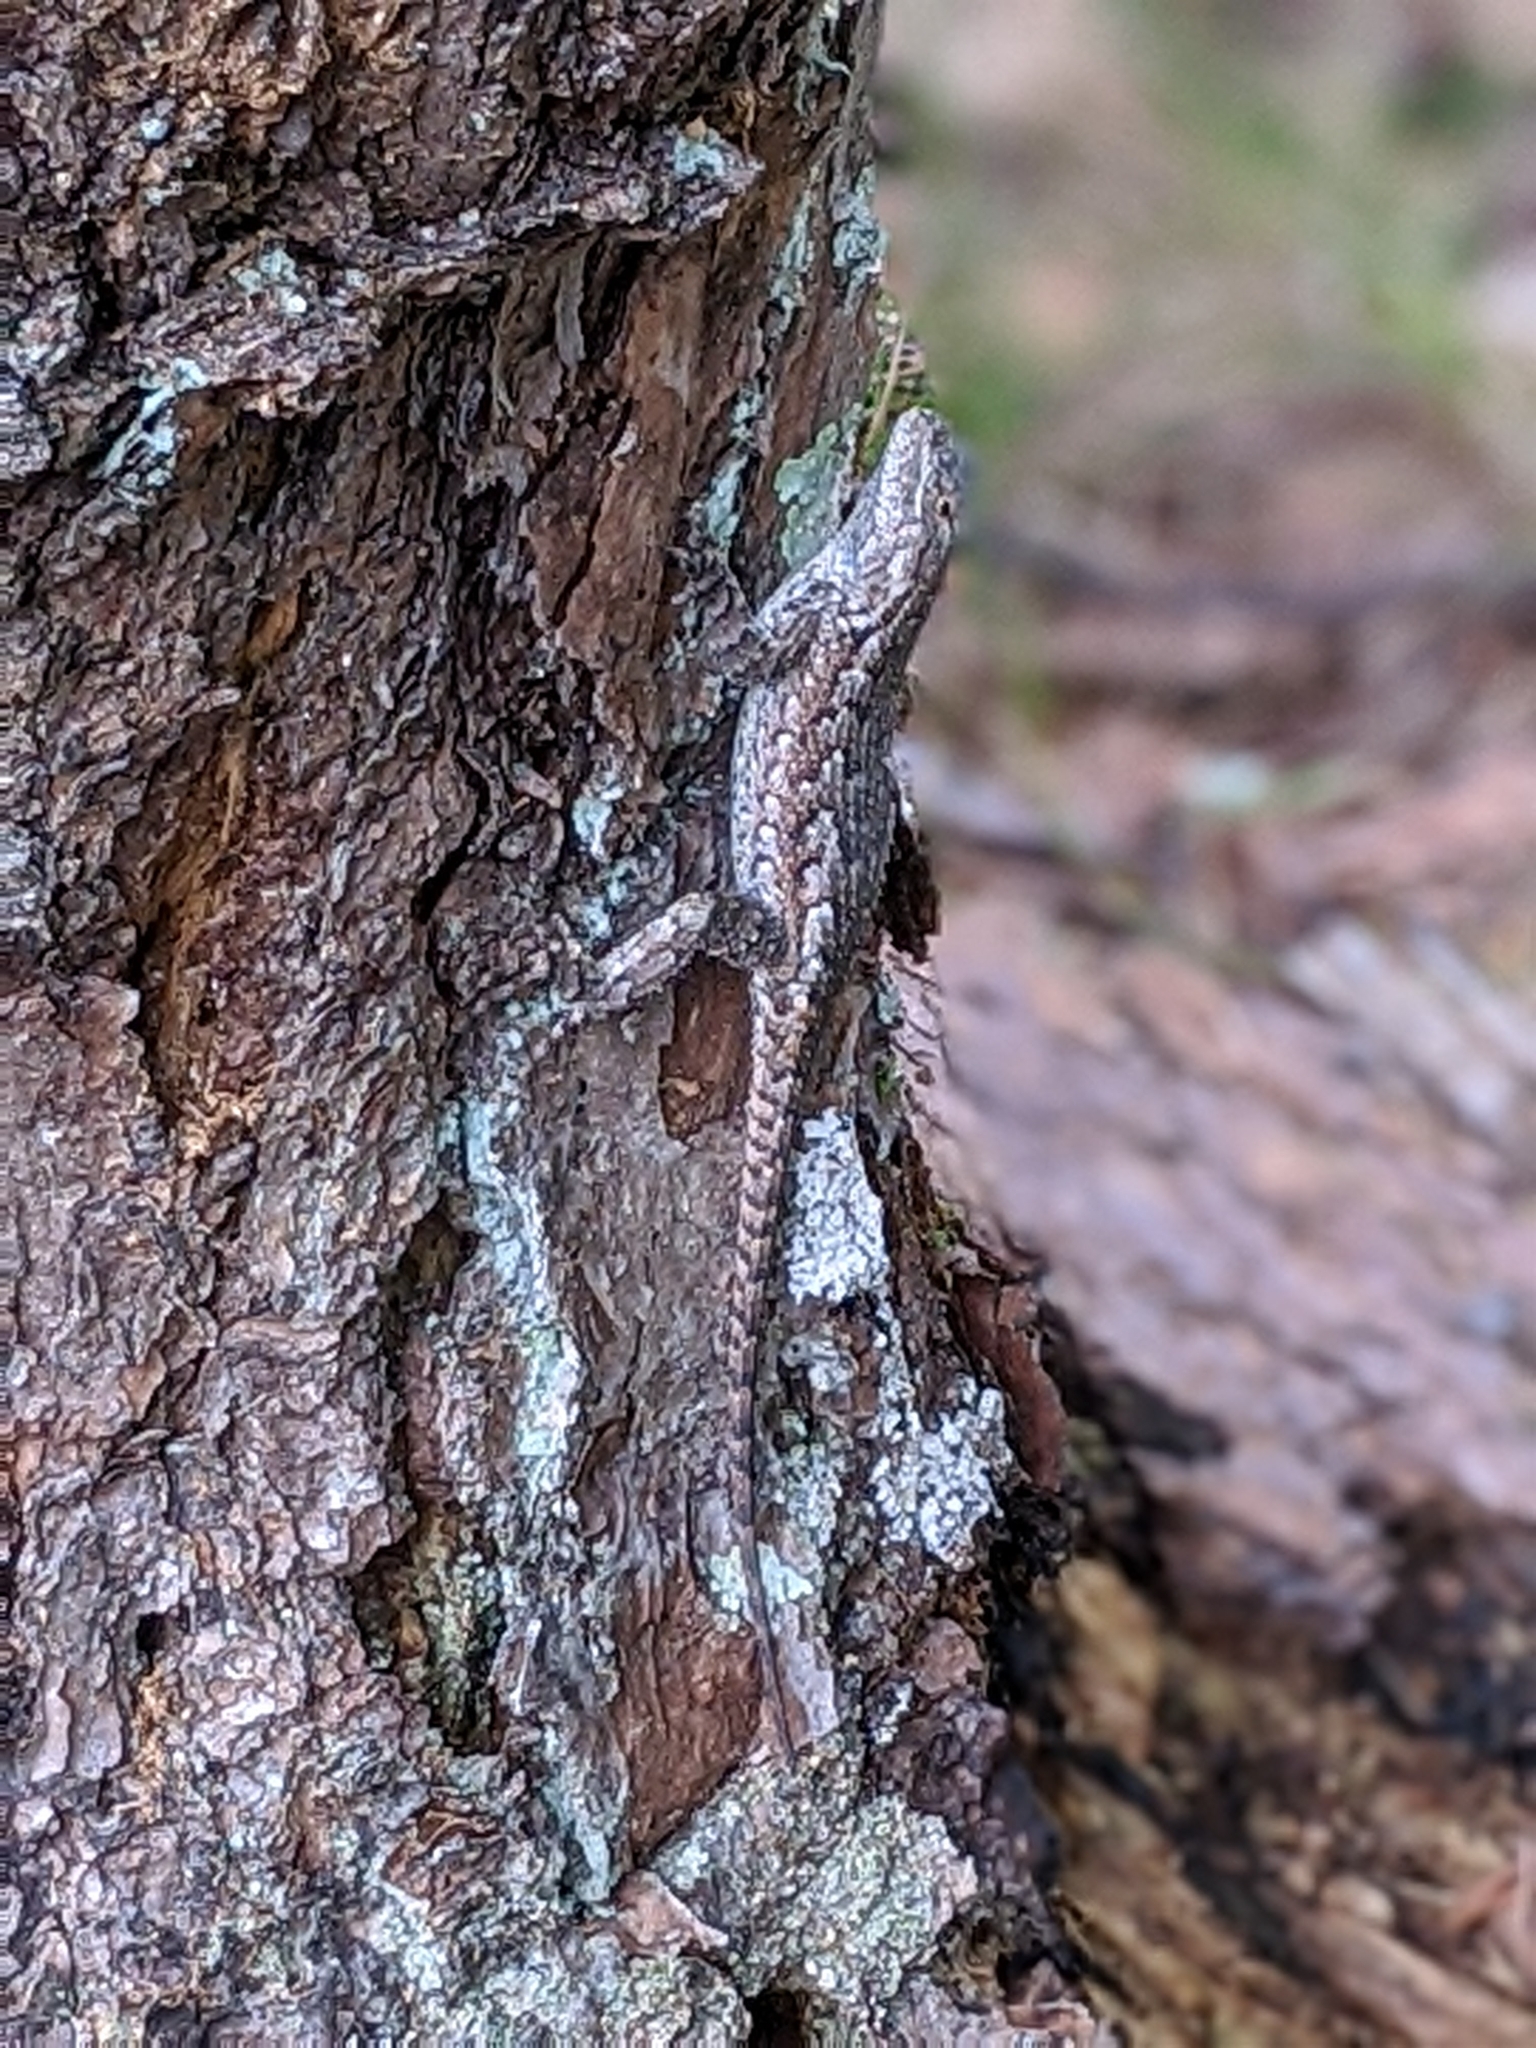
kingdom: Animalia
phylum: Chordata
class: Squamata
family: Phrynosomatidae
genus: Sceloporus
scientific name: Sceloporus undulatus
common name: Eastern fence lizard
